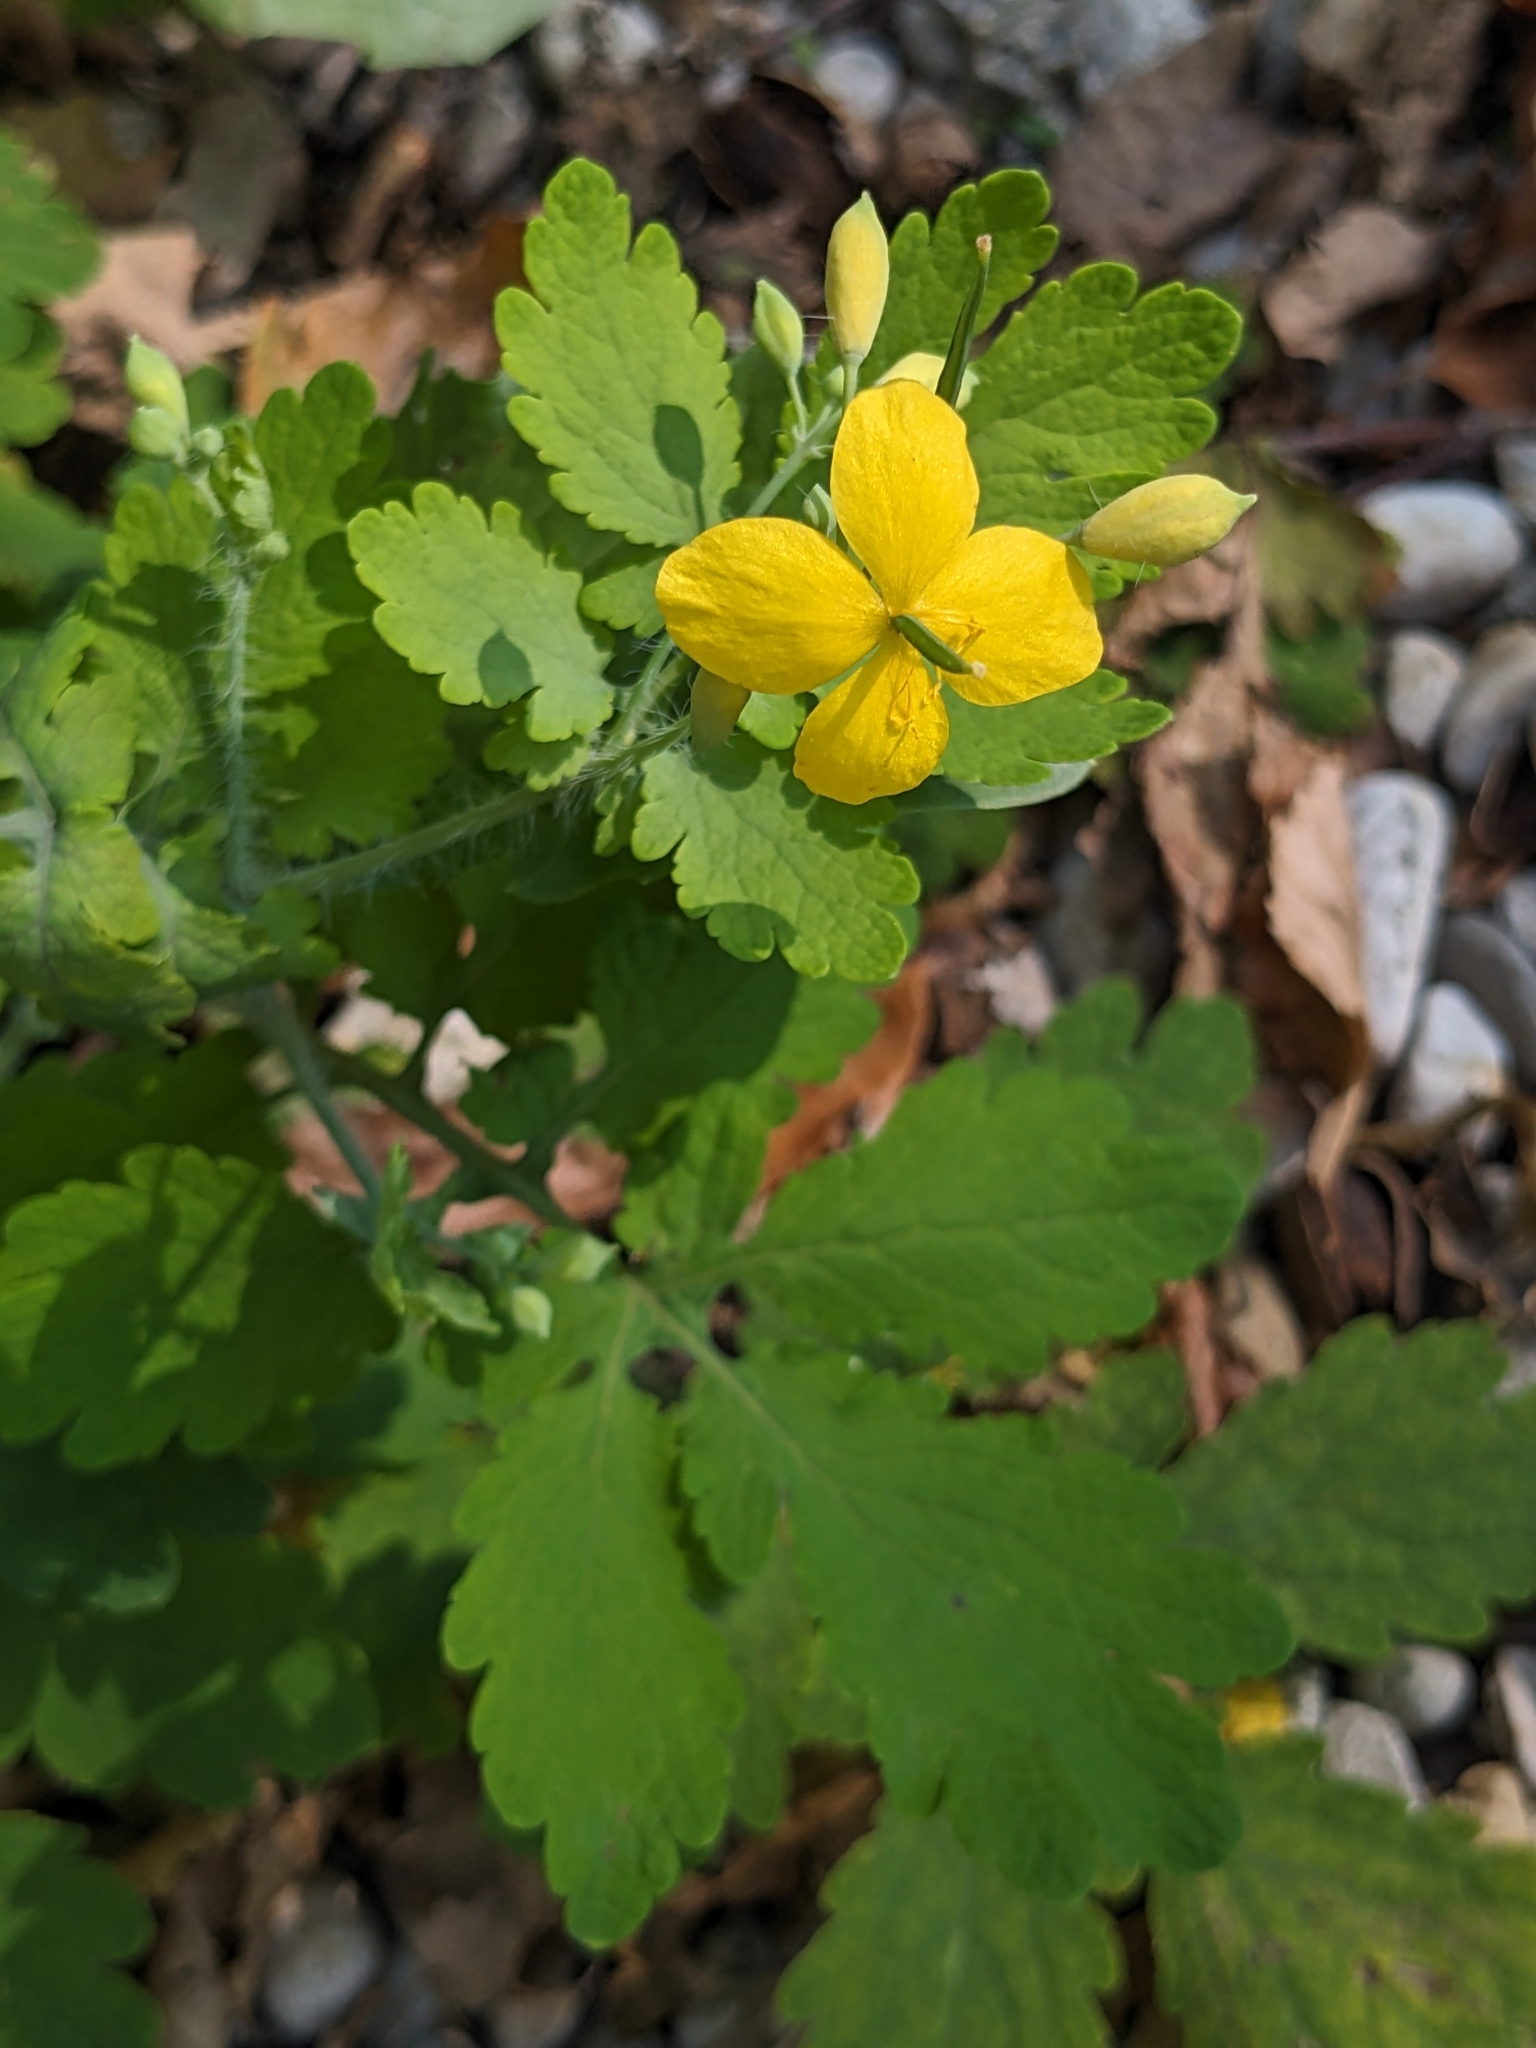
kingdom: Plantae
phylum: Tracheophyta
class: Magnoliopsida
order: Ranunculales
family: Papaveraceae
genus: Chelidonium
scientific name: Chelidonium majus
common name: Greater celandine
